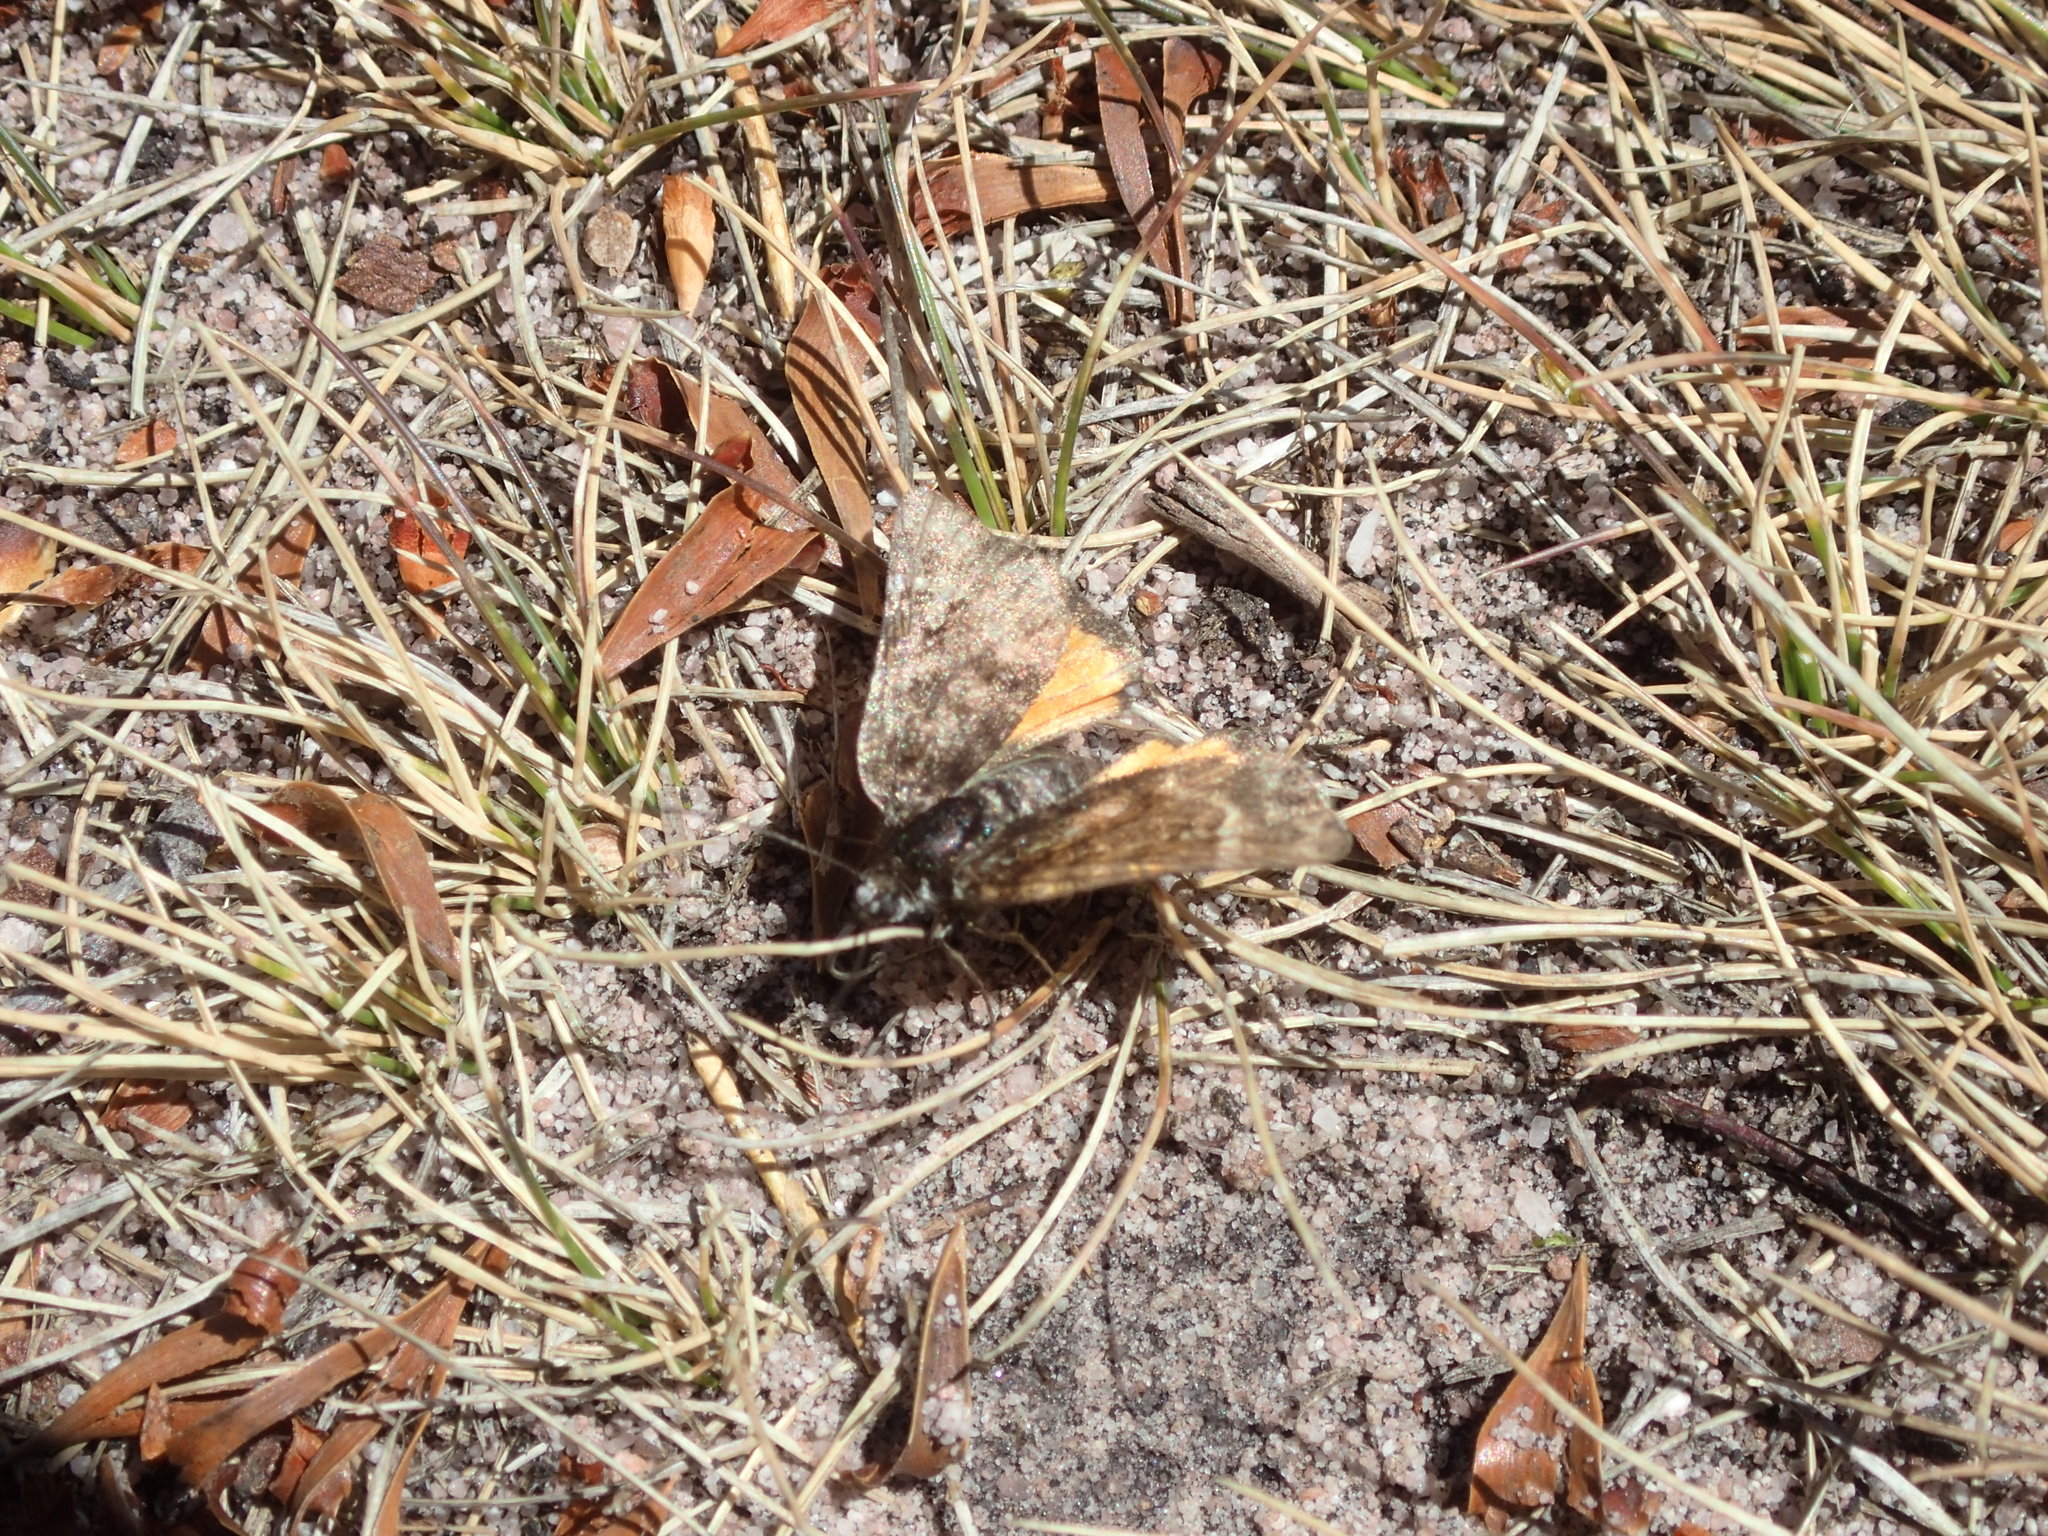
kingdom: Animalia
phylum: Arthropoda
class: Insecta
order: Lepidoptera
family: Geometridae
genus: Dirce
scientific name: Dirce solaris
